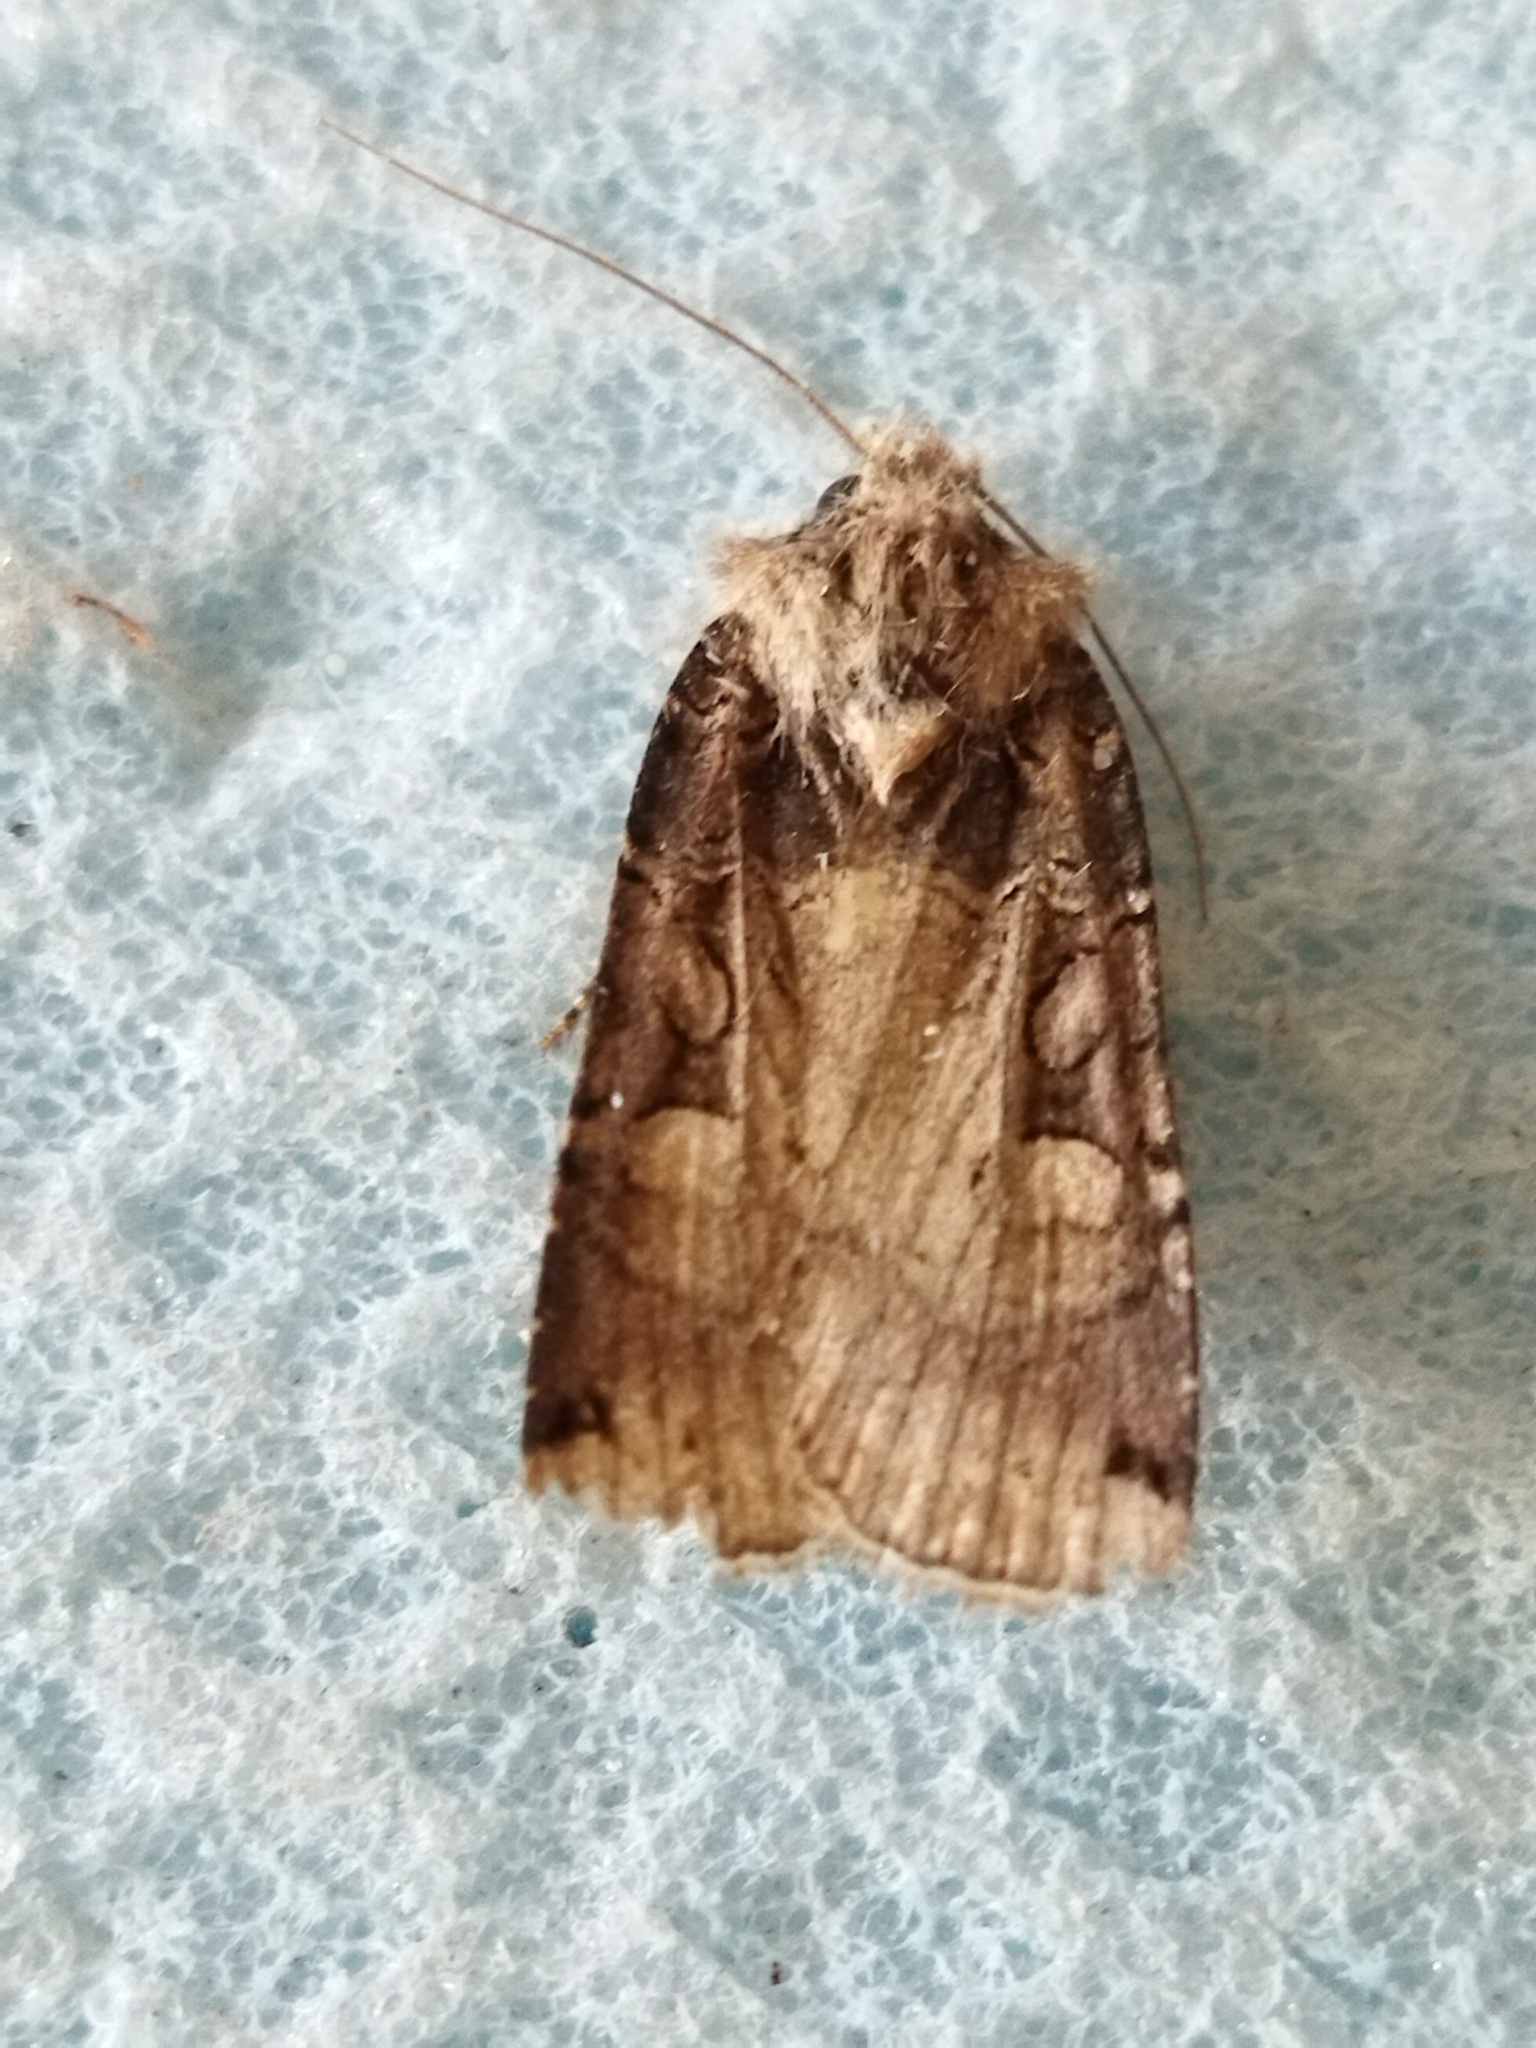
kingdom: Animalia
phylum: Arthropoda
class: Insecta
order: Lepidoptera
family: Noctuidae
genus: Opigena
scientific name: Opigena polygona
